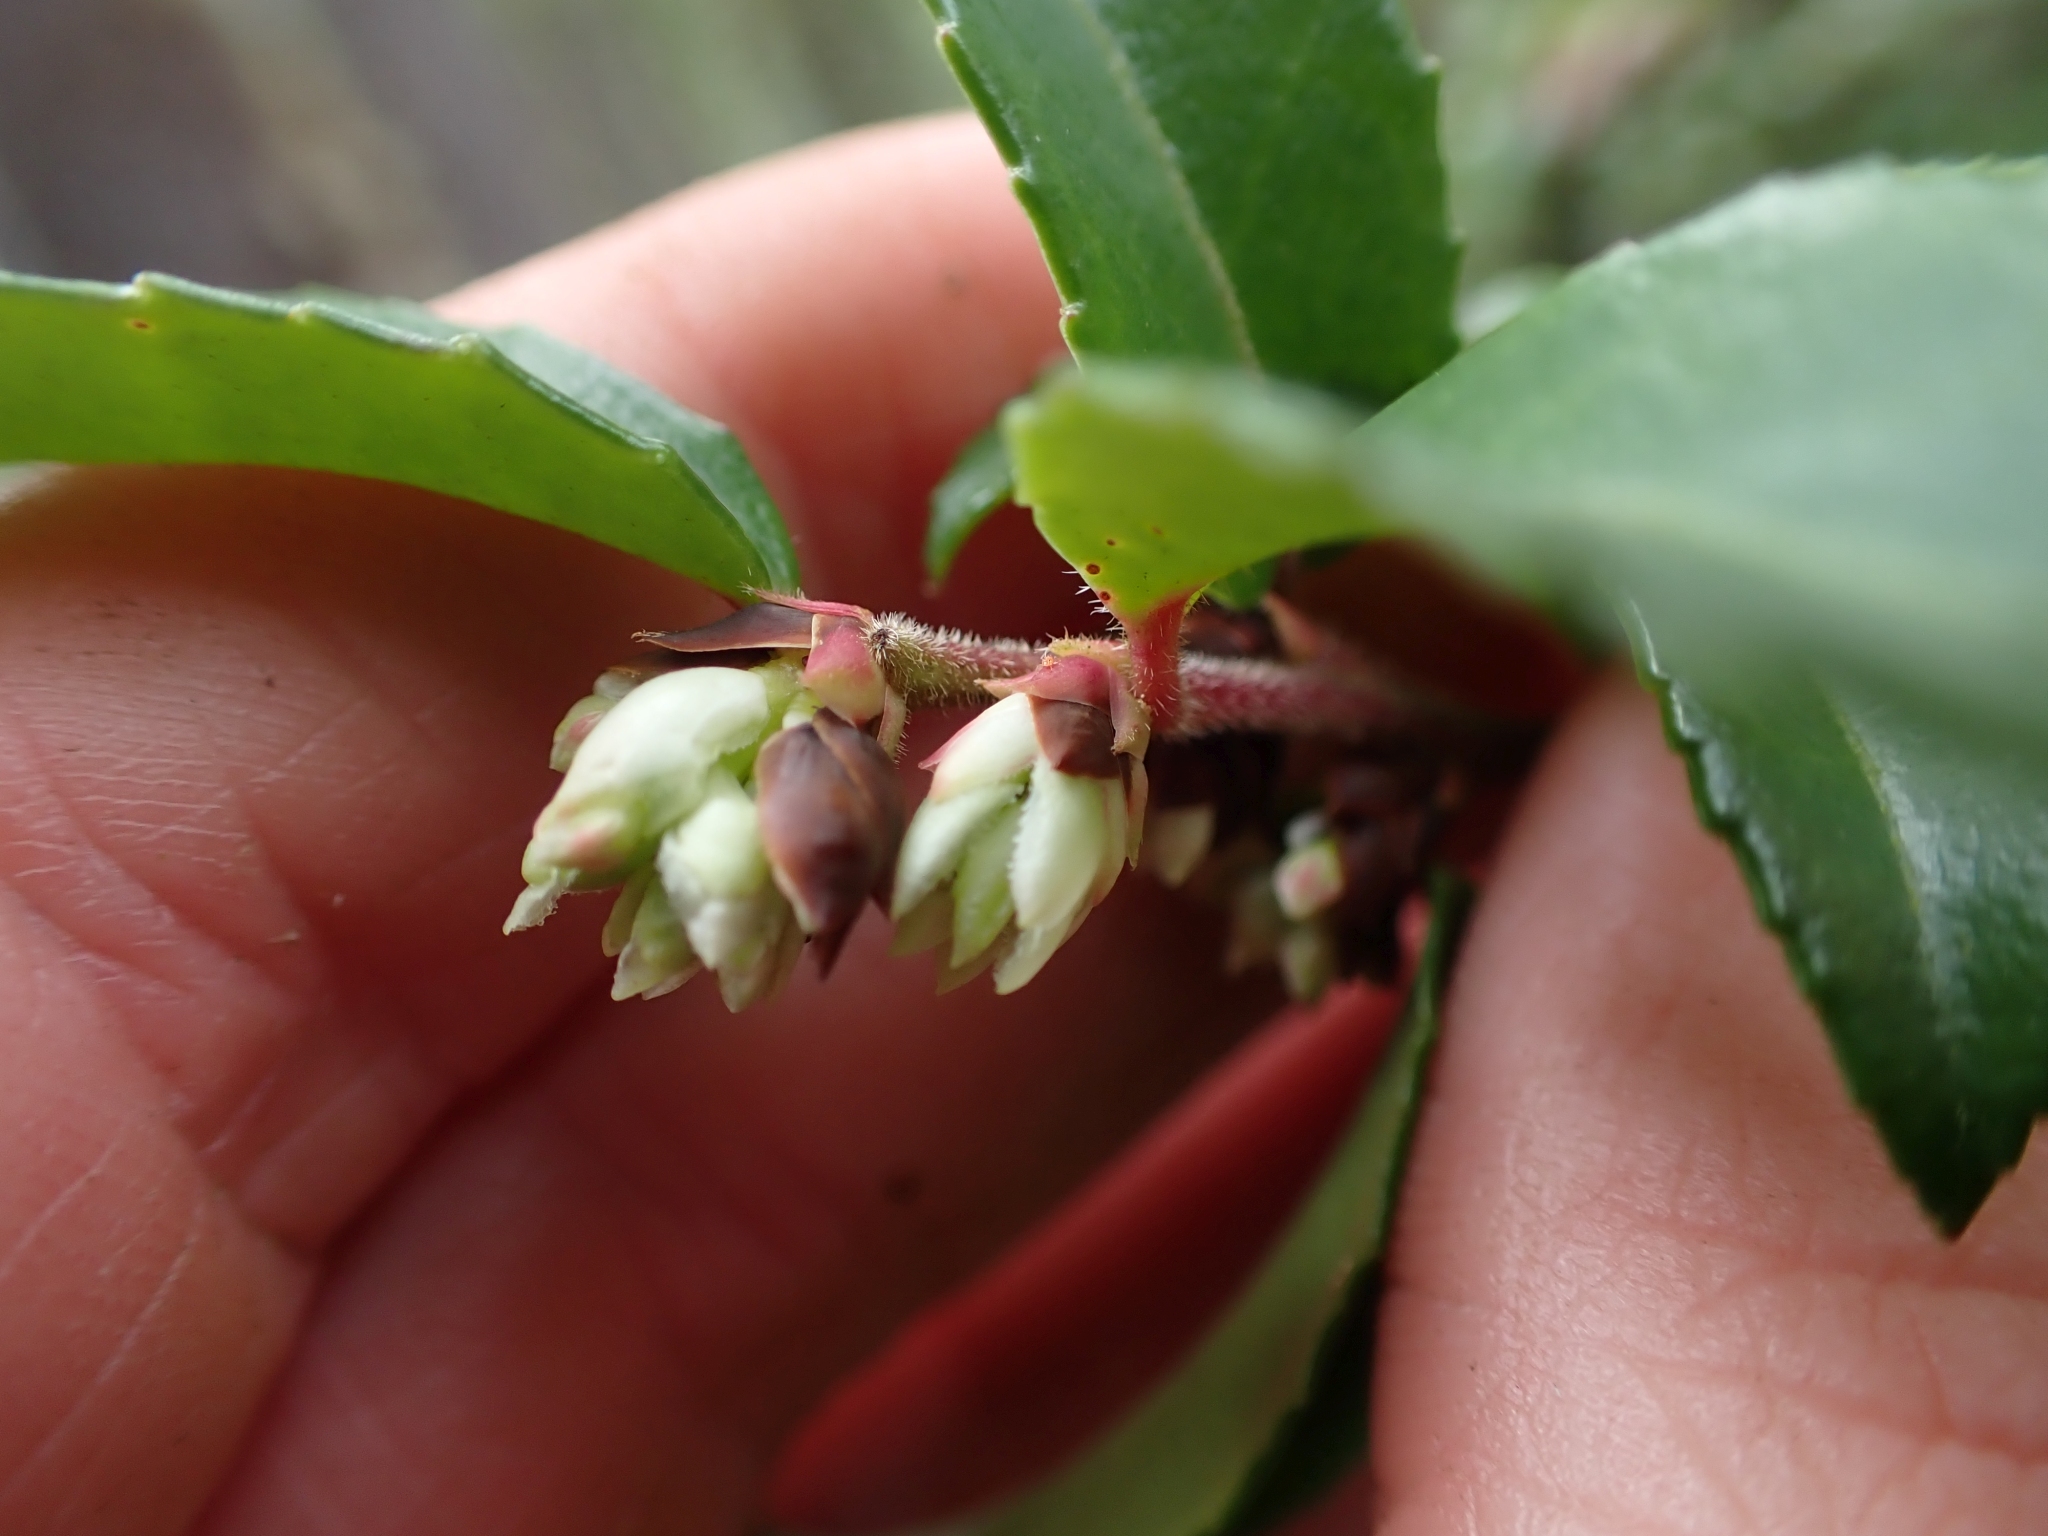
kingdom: Plantae
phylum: Tracheophyta
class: Magnoliopsida
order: Ericales
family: Ericaceae
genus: Vaccinium
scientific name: Vaccinium ovatum
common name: California-huckleberry
